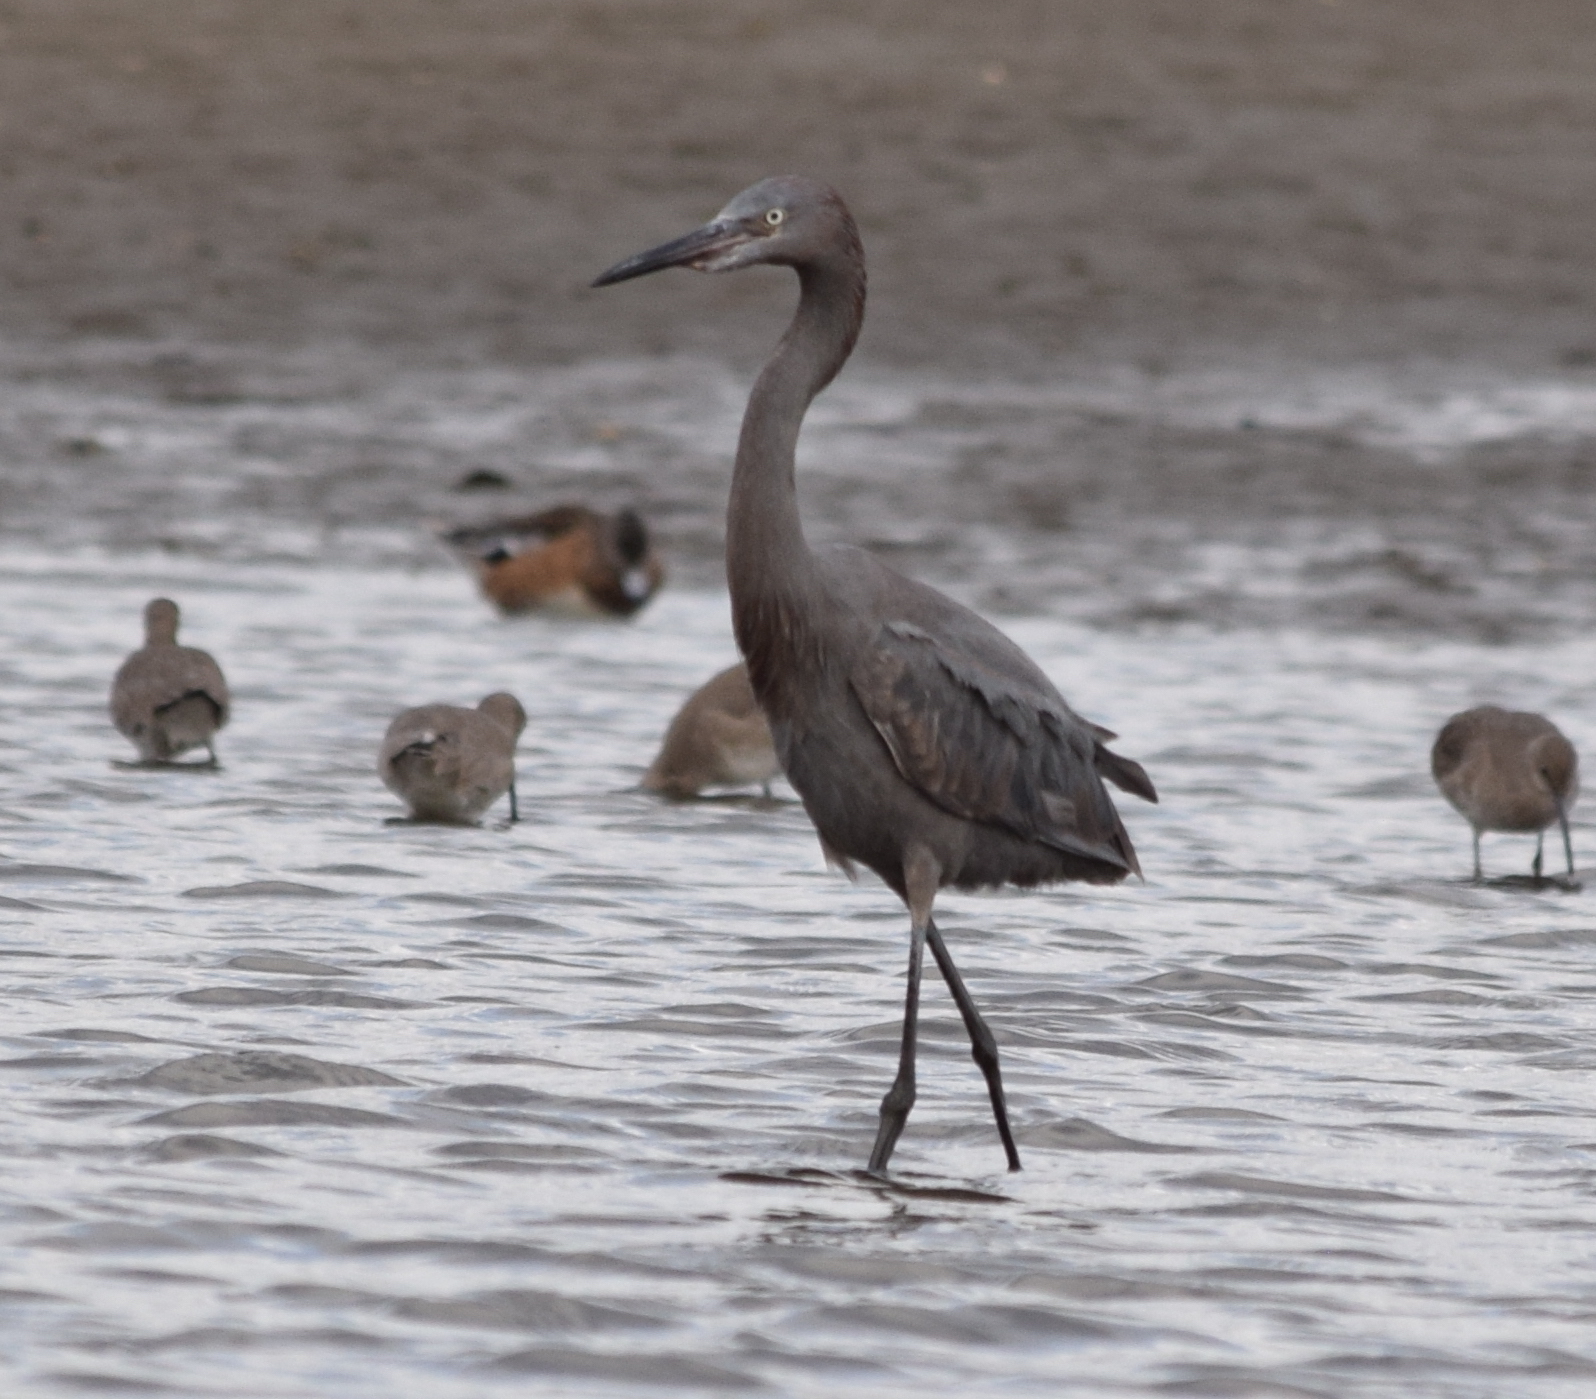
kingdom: Animalia
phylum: Chordata
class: Aves
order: Pelecaniformes
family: Ardeidae
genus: Egretta
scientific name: Egretta rufescens
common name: Reddish egret
